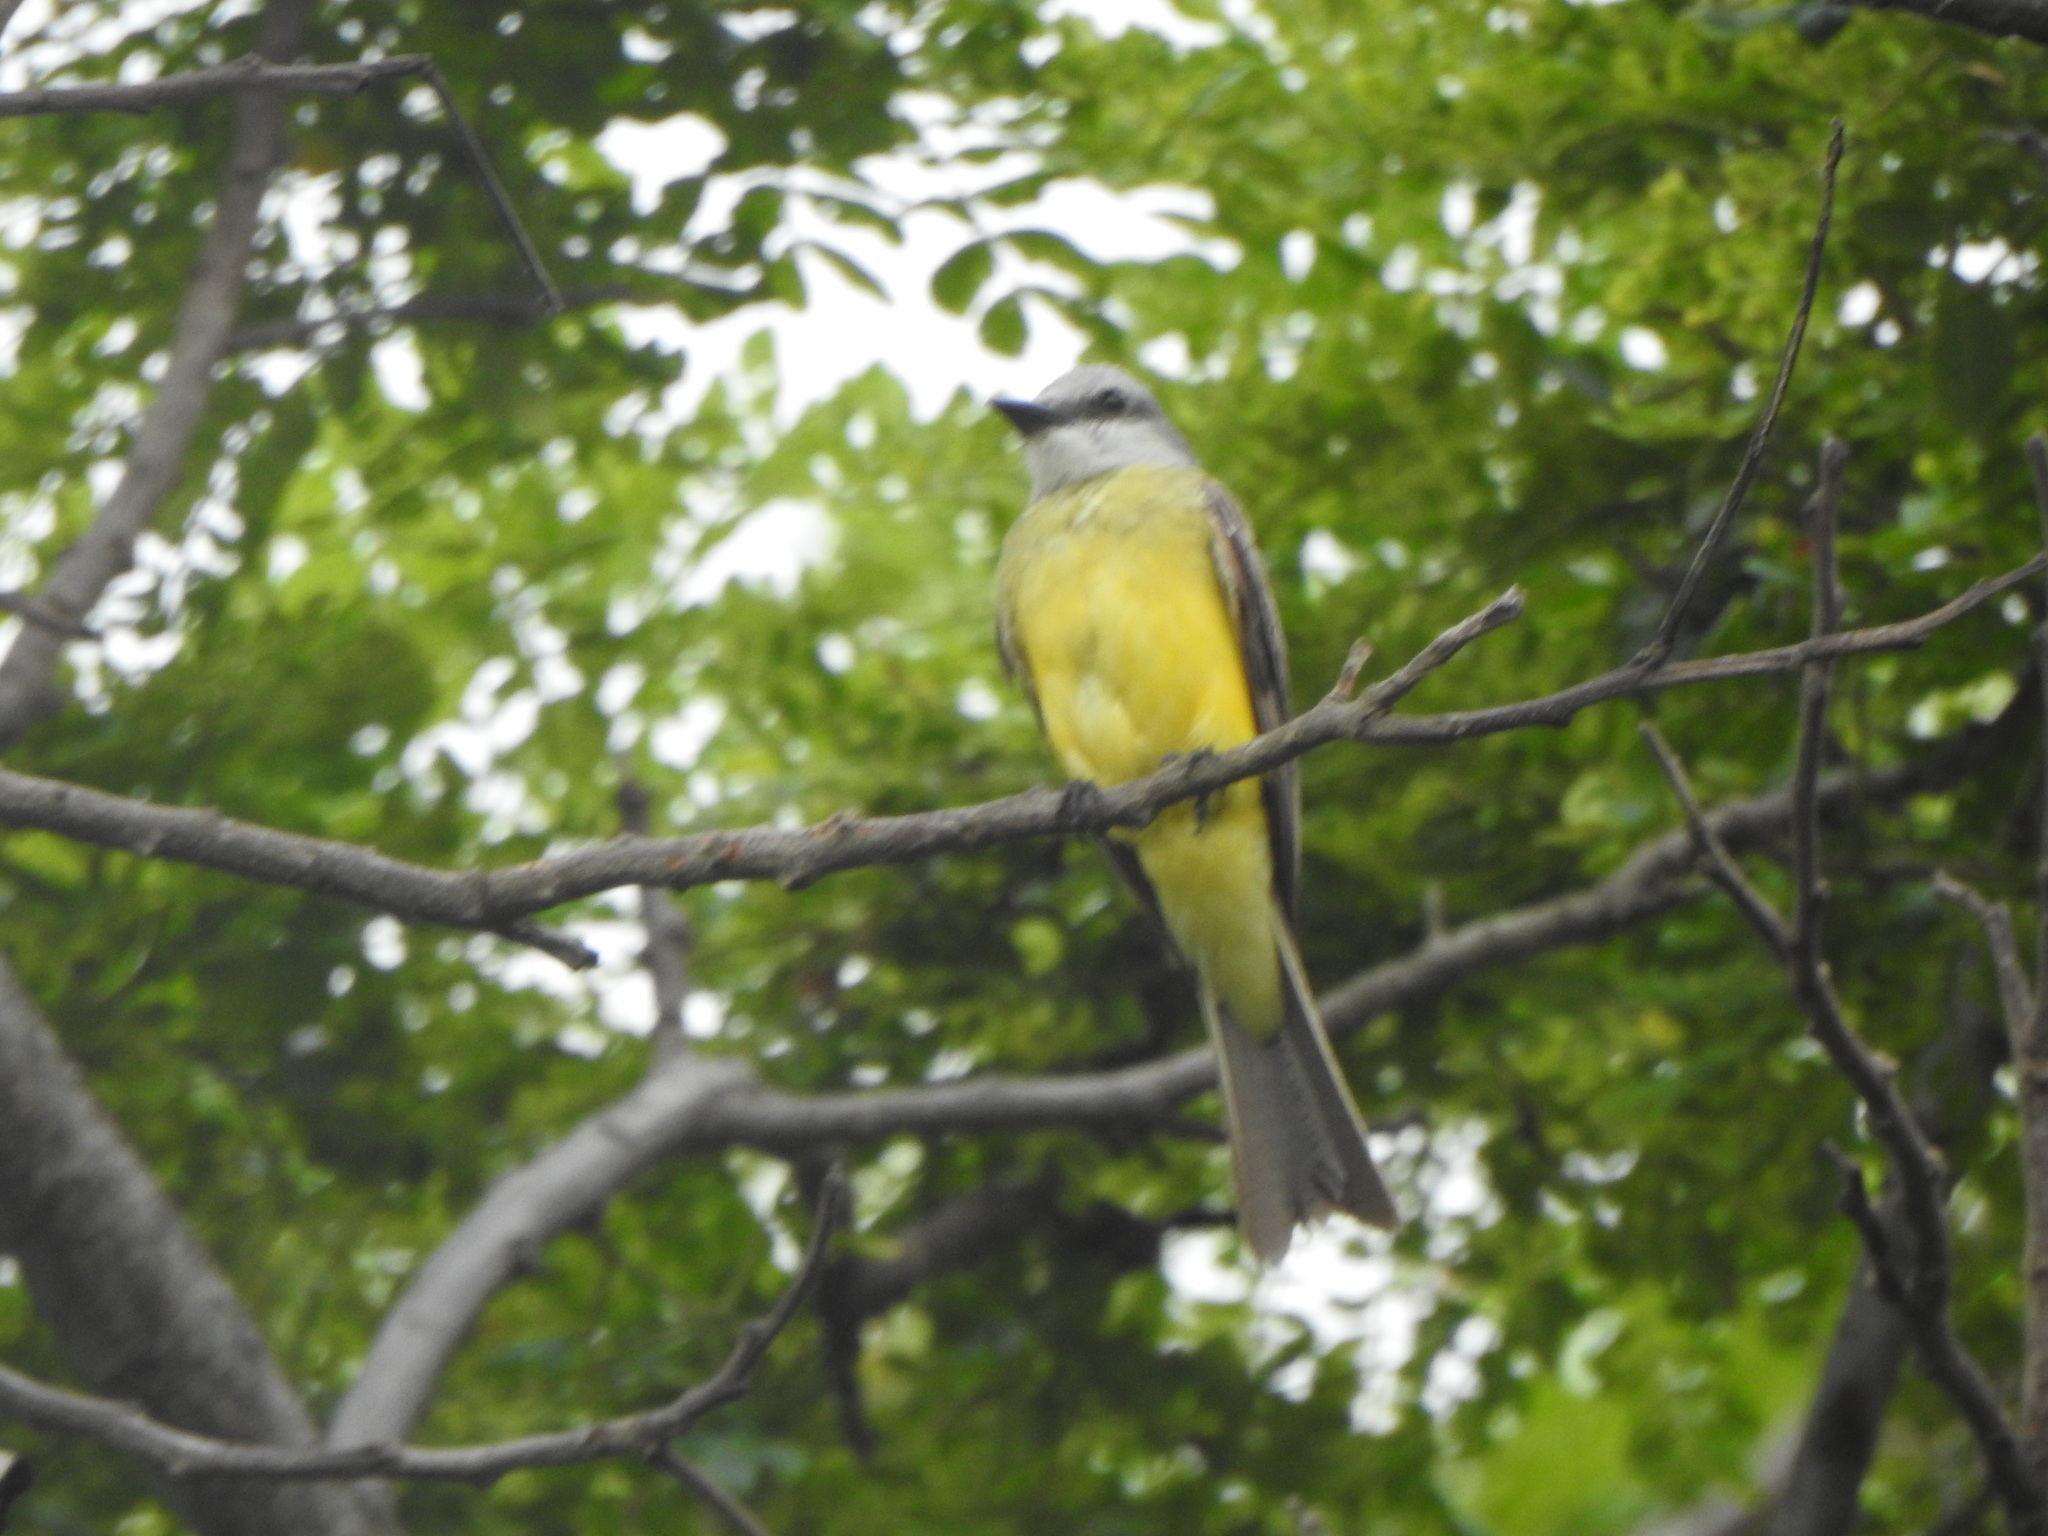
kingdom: Animalia
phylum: Chordata
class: Aves
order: Passeriformes
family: Tyrannidae
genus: Tyrannus
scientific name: Tyrannus melancholicus
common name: Tropical kingbird
